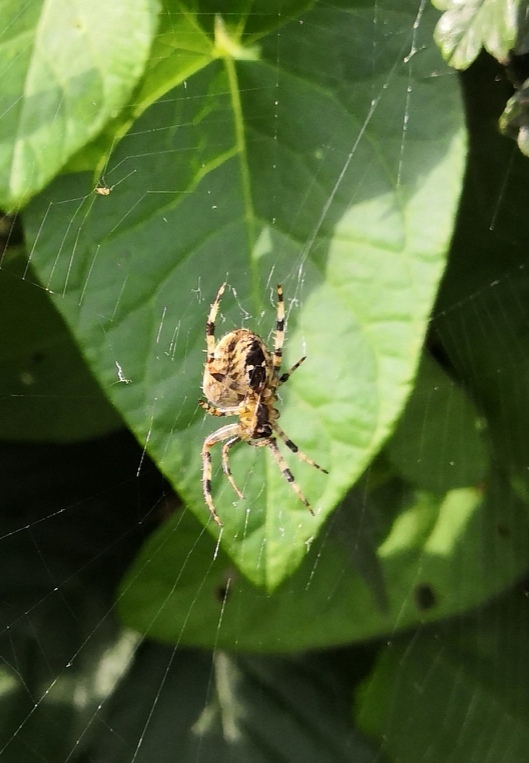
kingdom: Animalia
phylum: Arthropoda
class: Arachnida
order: Araneae
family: Araneidae
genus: Araneus
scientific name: Araneus diadematus
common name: Cross orbweaver
